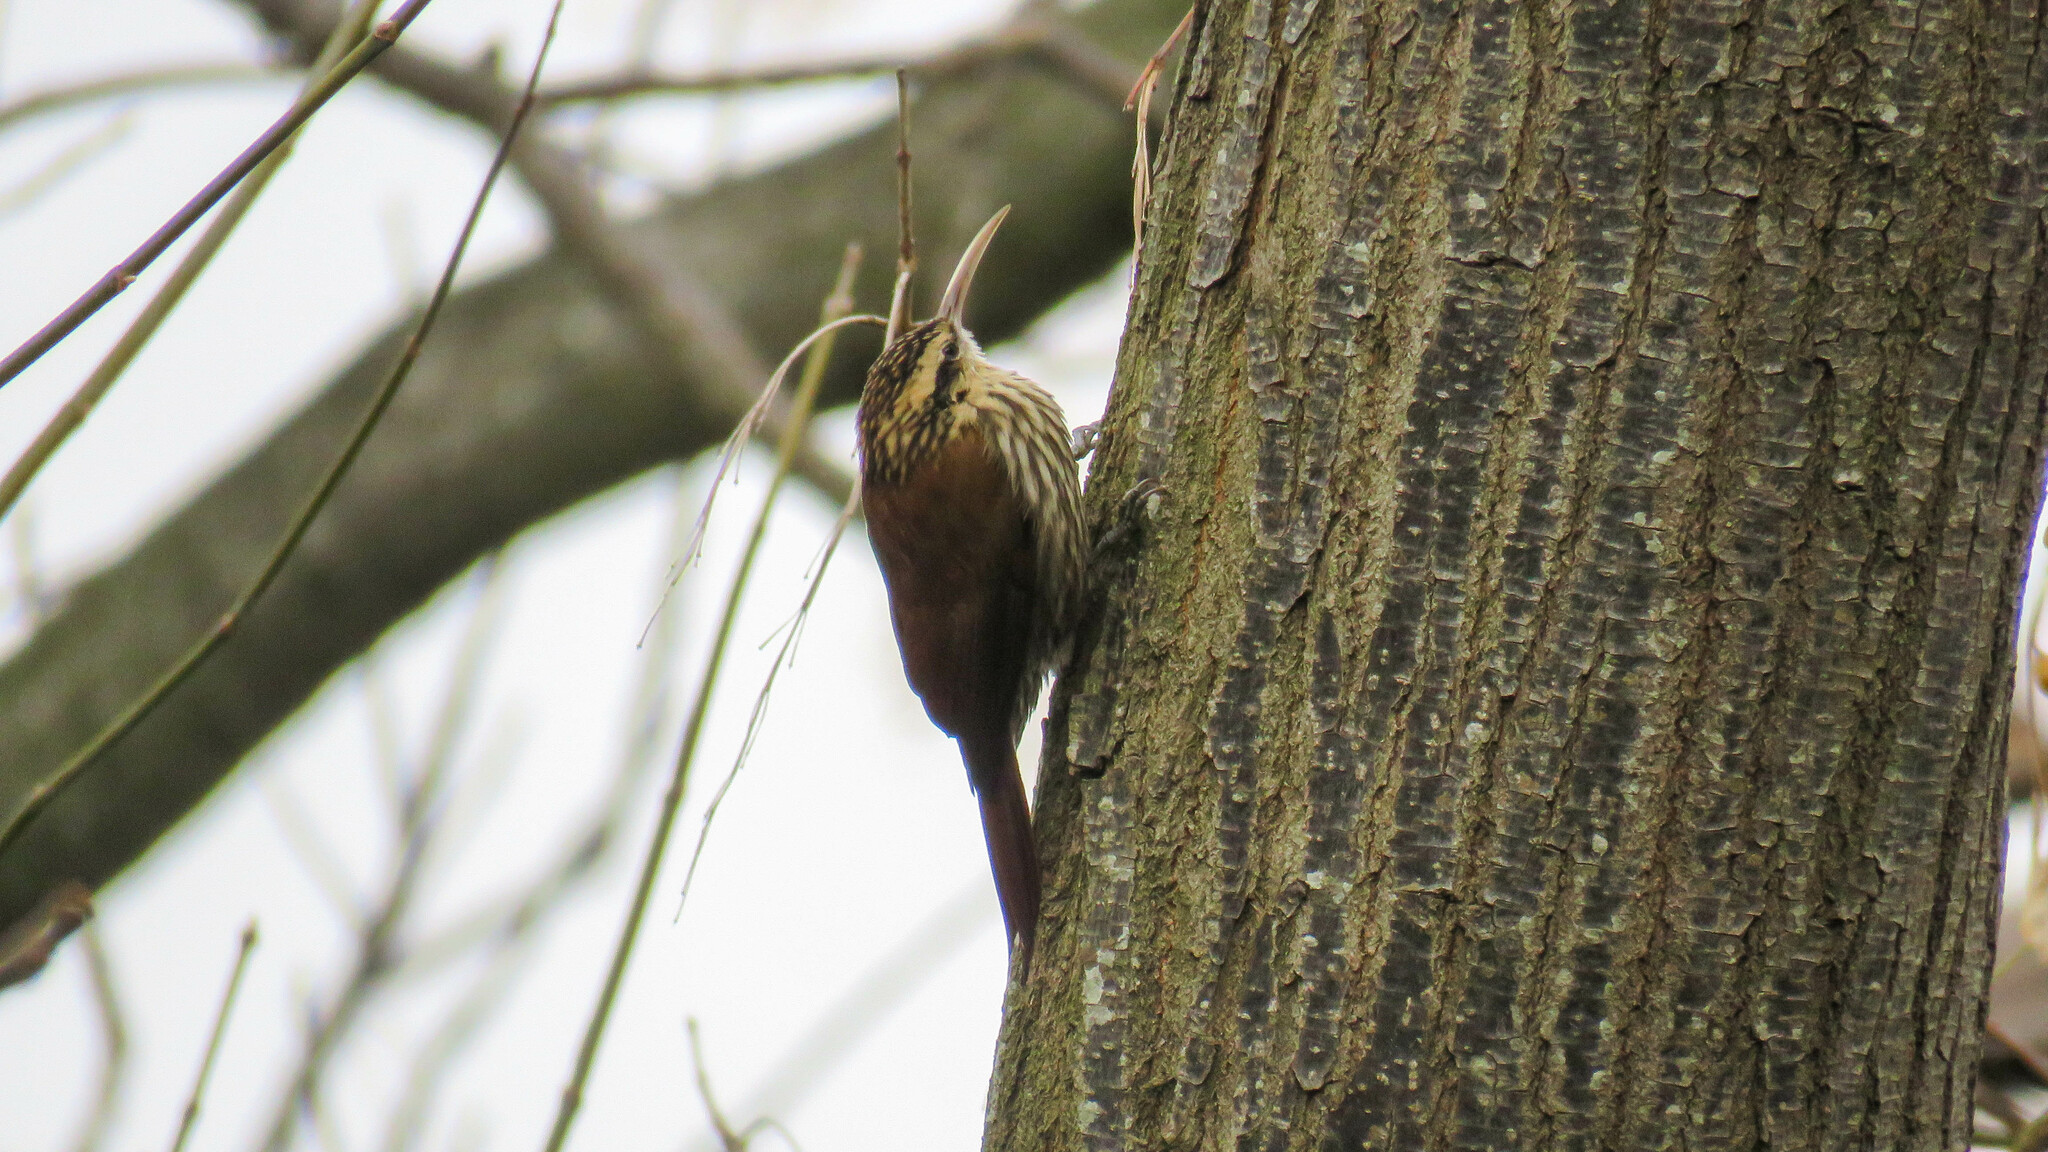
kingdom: Animalia
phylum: Chordata
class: Aves
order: Passeriformes
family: Furnariidae
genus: Lepidocolaptes
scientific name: Lepidocolaptes angustirostris
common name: Narrow-billed woodcreeper
